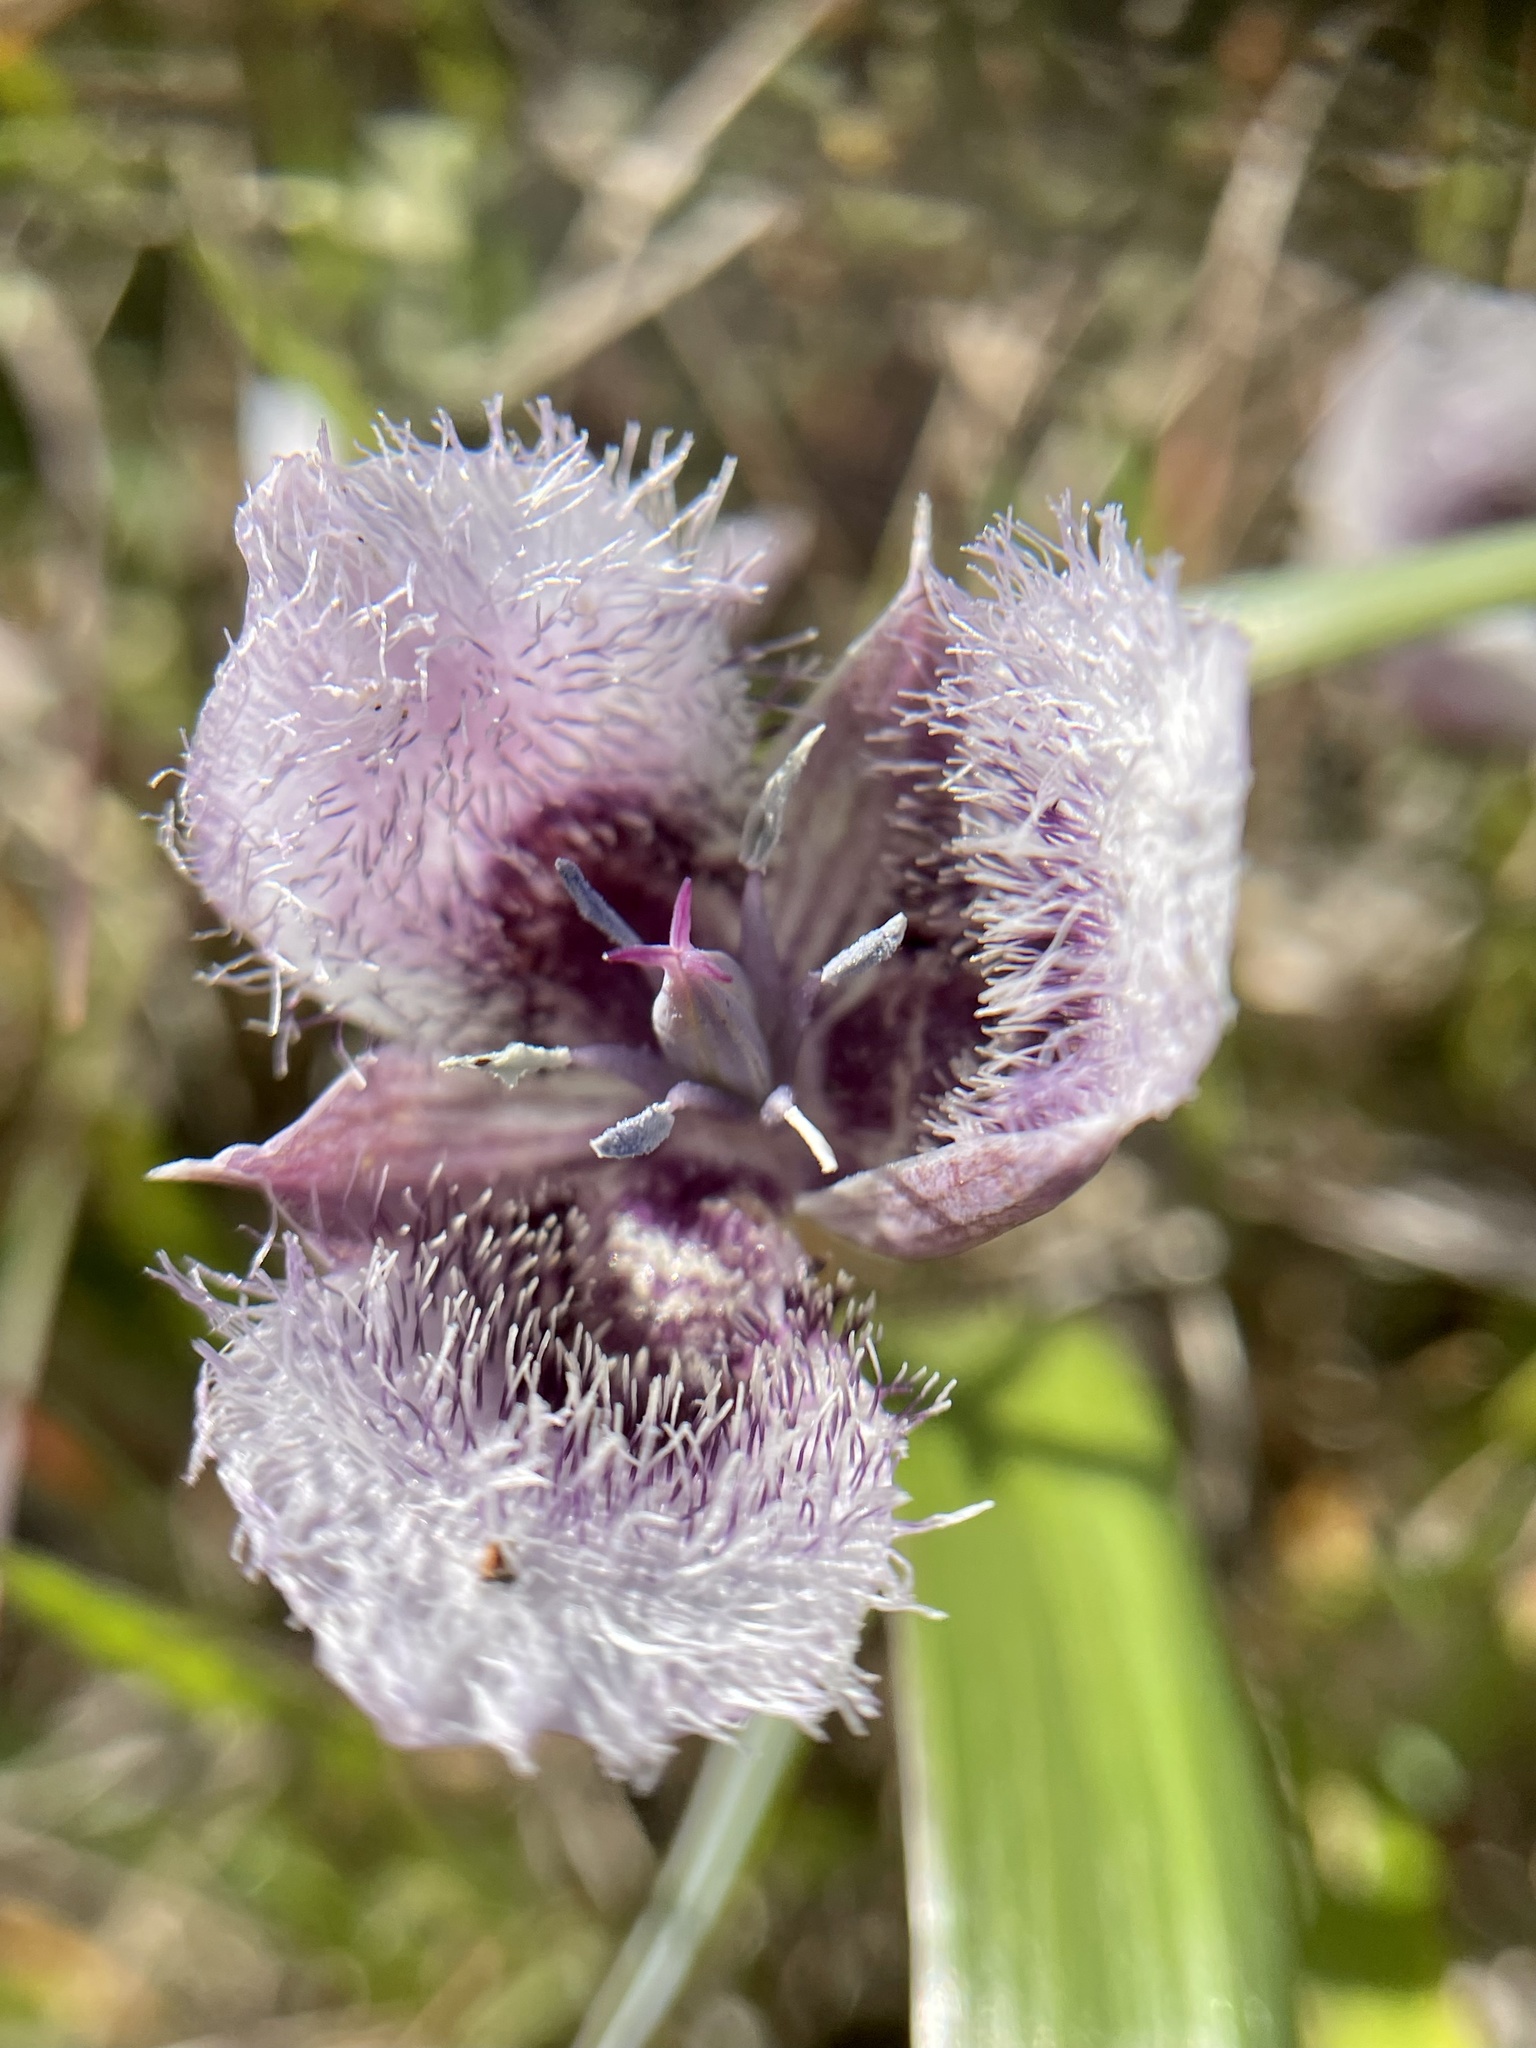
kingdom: Plantae
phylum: Tracheophyta
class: Liliopsida
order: Liliales
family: Liliaceae
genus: Calochortus
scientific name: Calochortus tolmiei
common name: Pussy-ears
